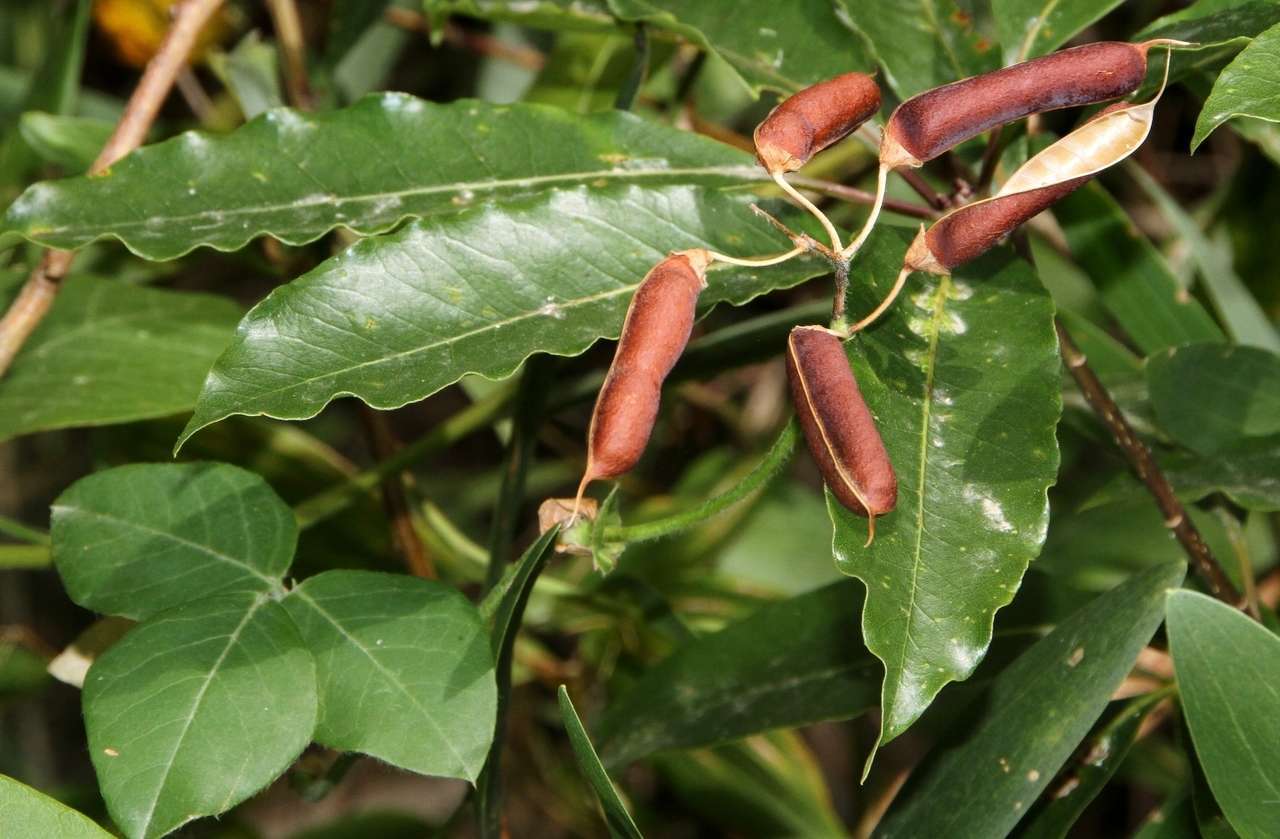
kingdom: Plantae
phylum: Tracheophyta
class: Magnoliopsida
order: Fabales
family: Fabaceae
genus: Kennedia
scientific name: Kennedia rubicunda
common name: Red kennedy-pea
